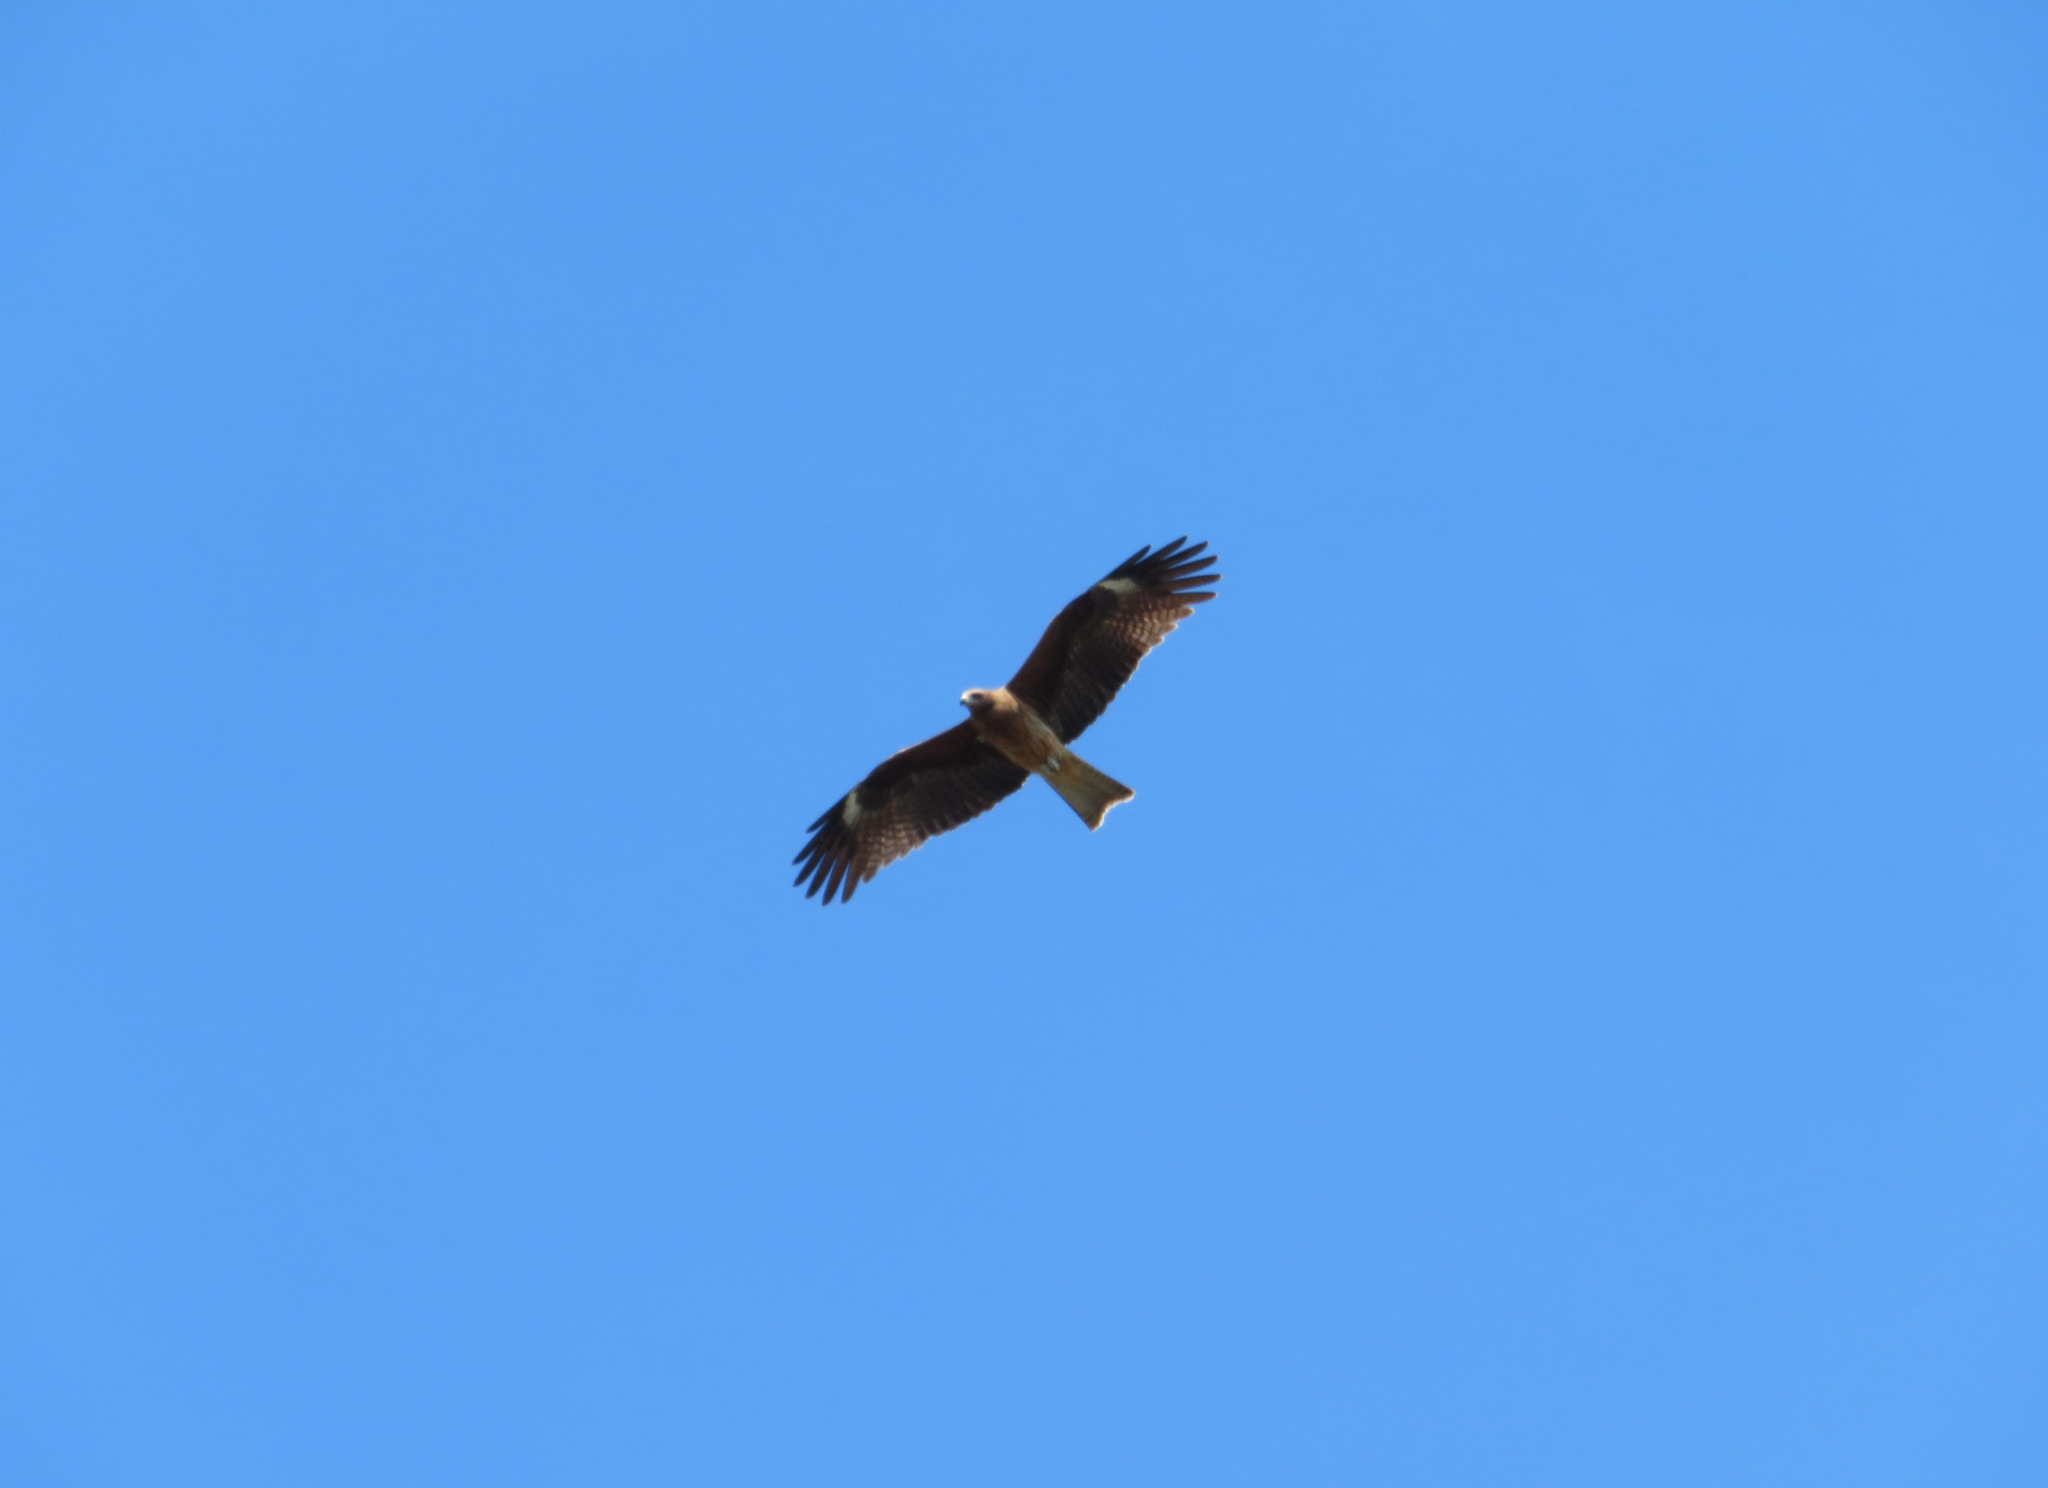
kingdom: Animalia
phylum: Chordata
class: Aves
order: Accipitriformes
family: Accipitridae
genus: Milvus
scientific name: Milvus migrans
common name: Black kite
